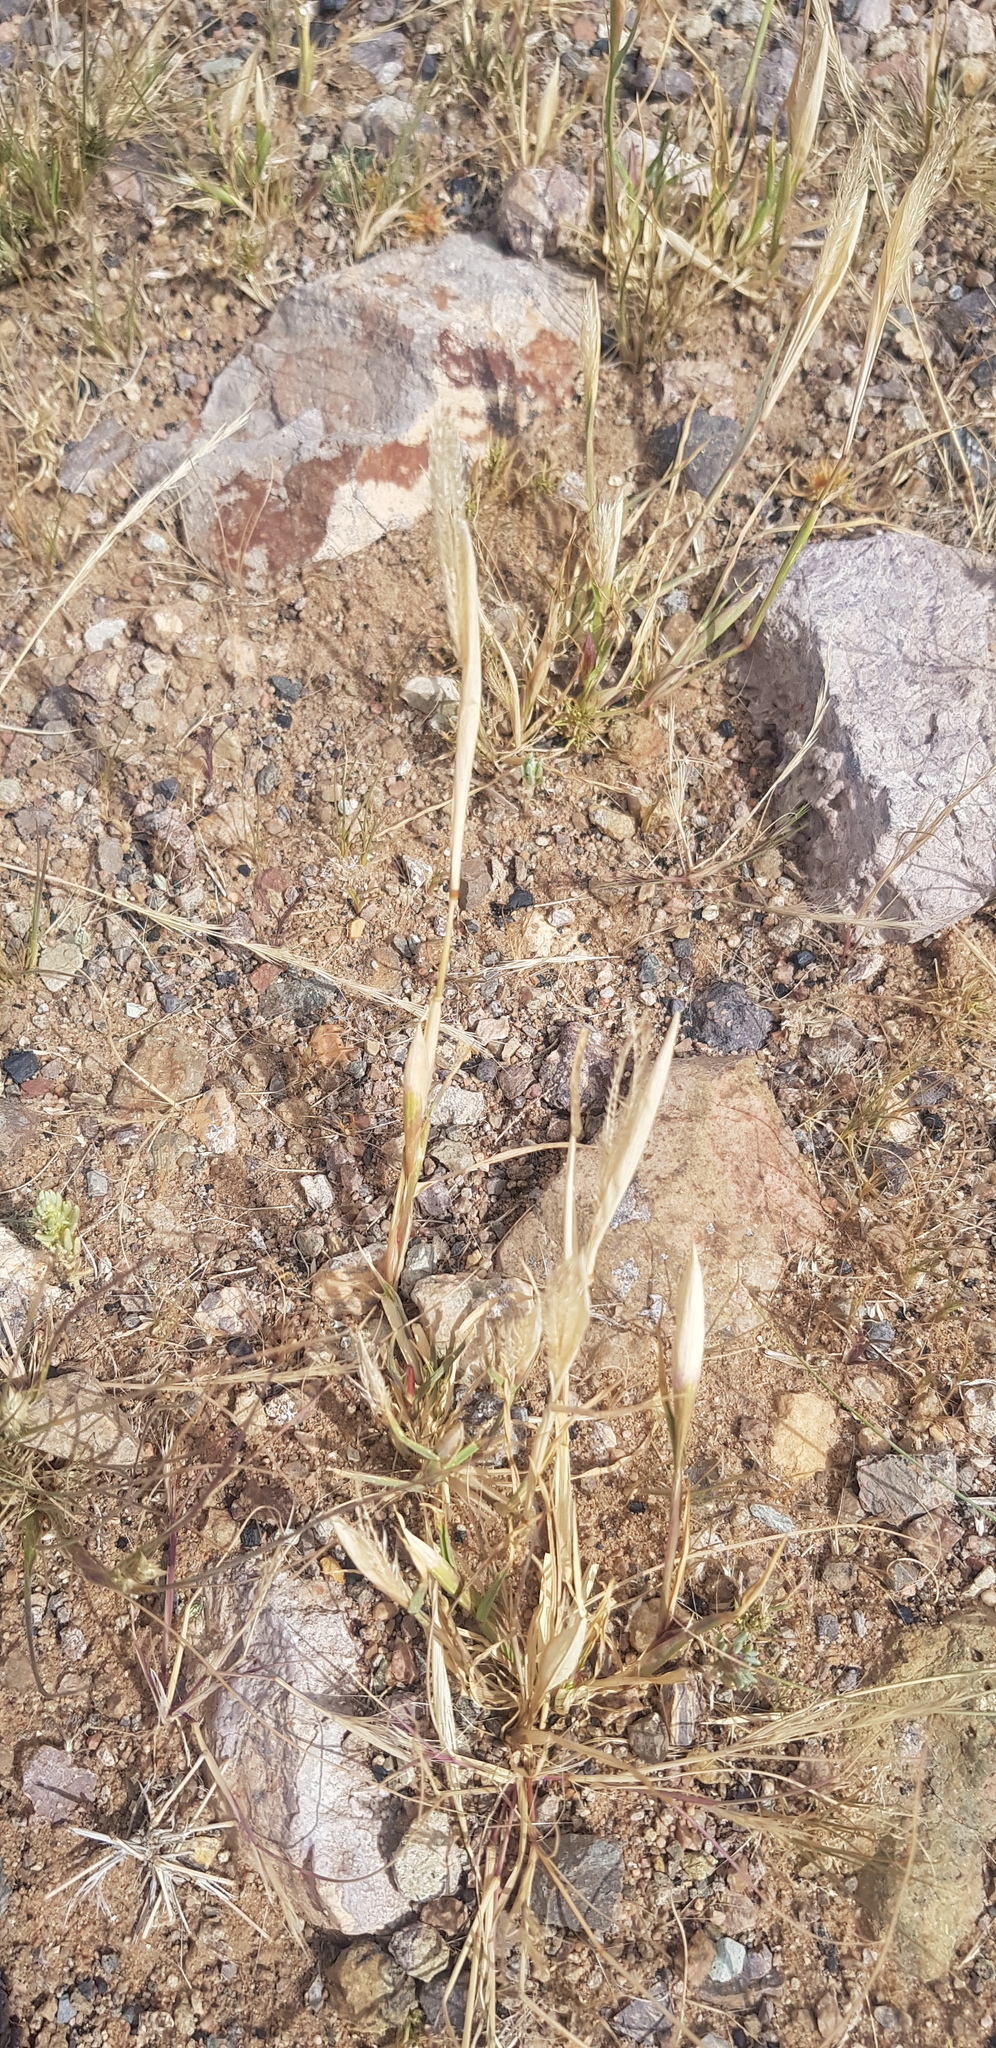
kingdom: Plantae
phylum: Tracheophyta
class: Liliopsida
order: Poales
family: Poaceae
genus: Chloris
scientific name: Chloris virgata
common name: Feathery rhodes-grass
